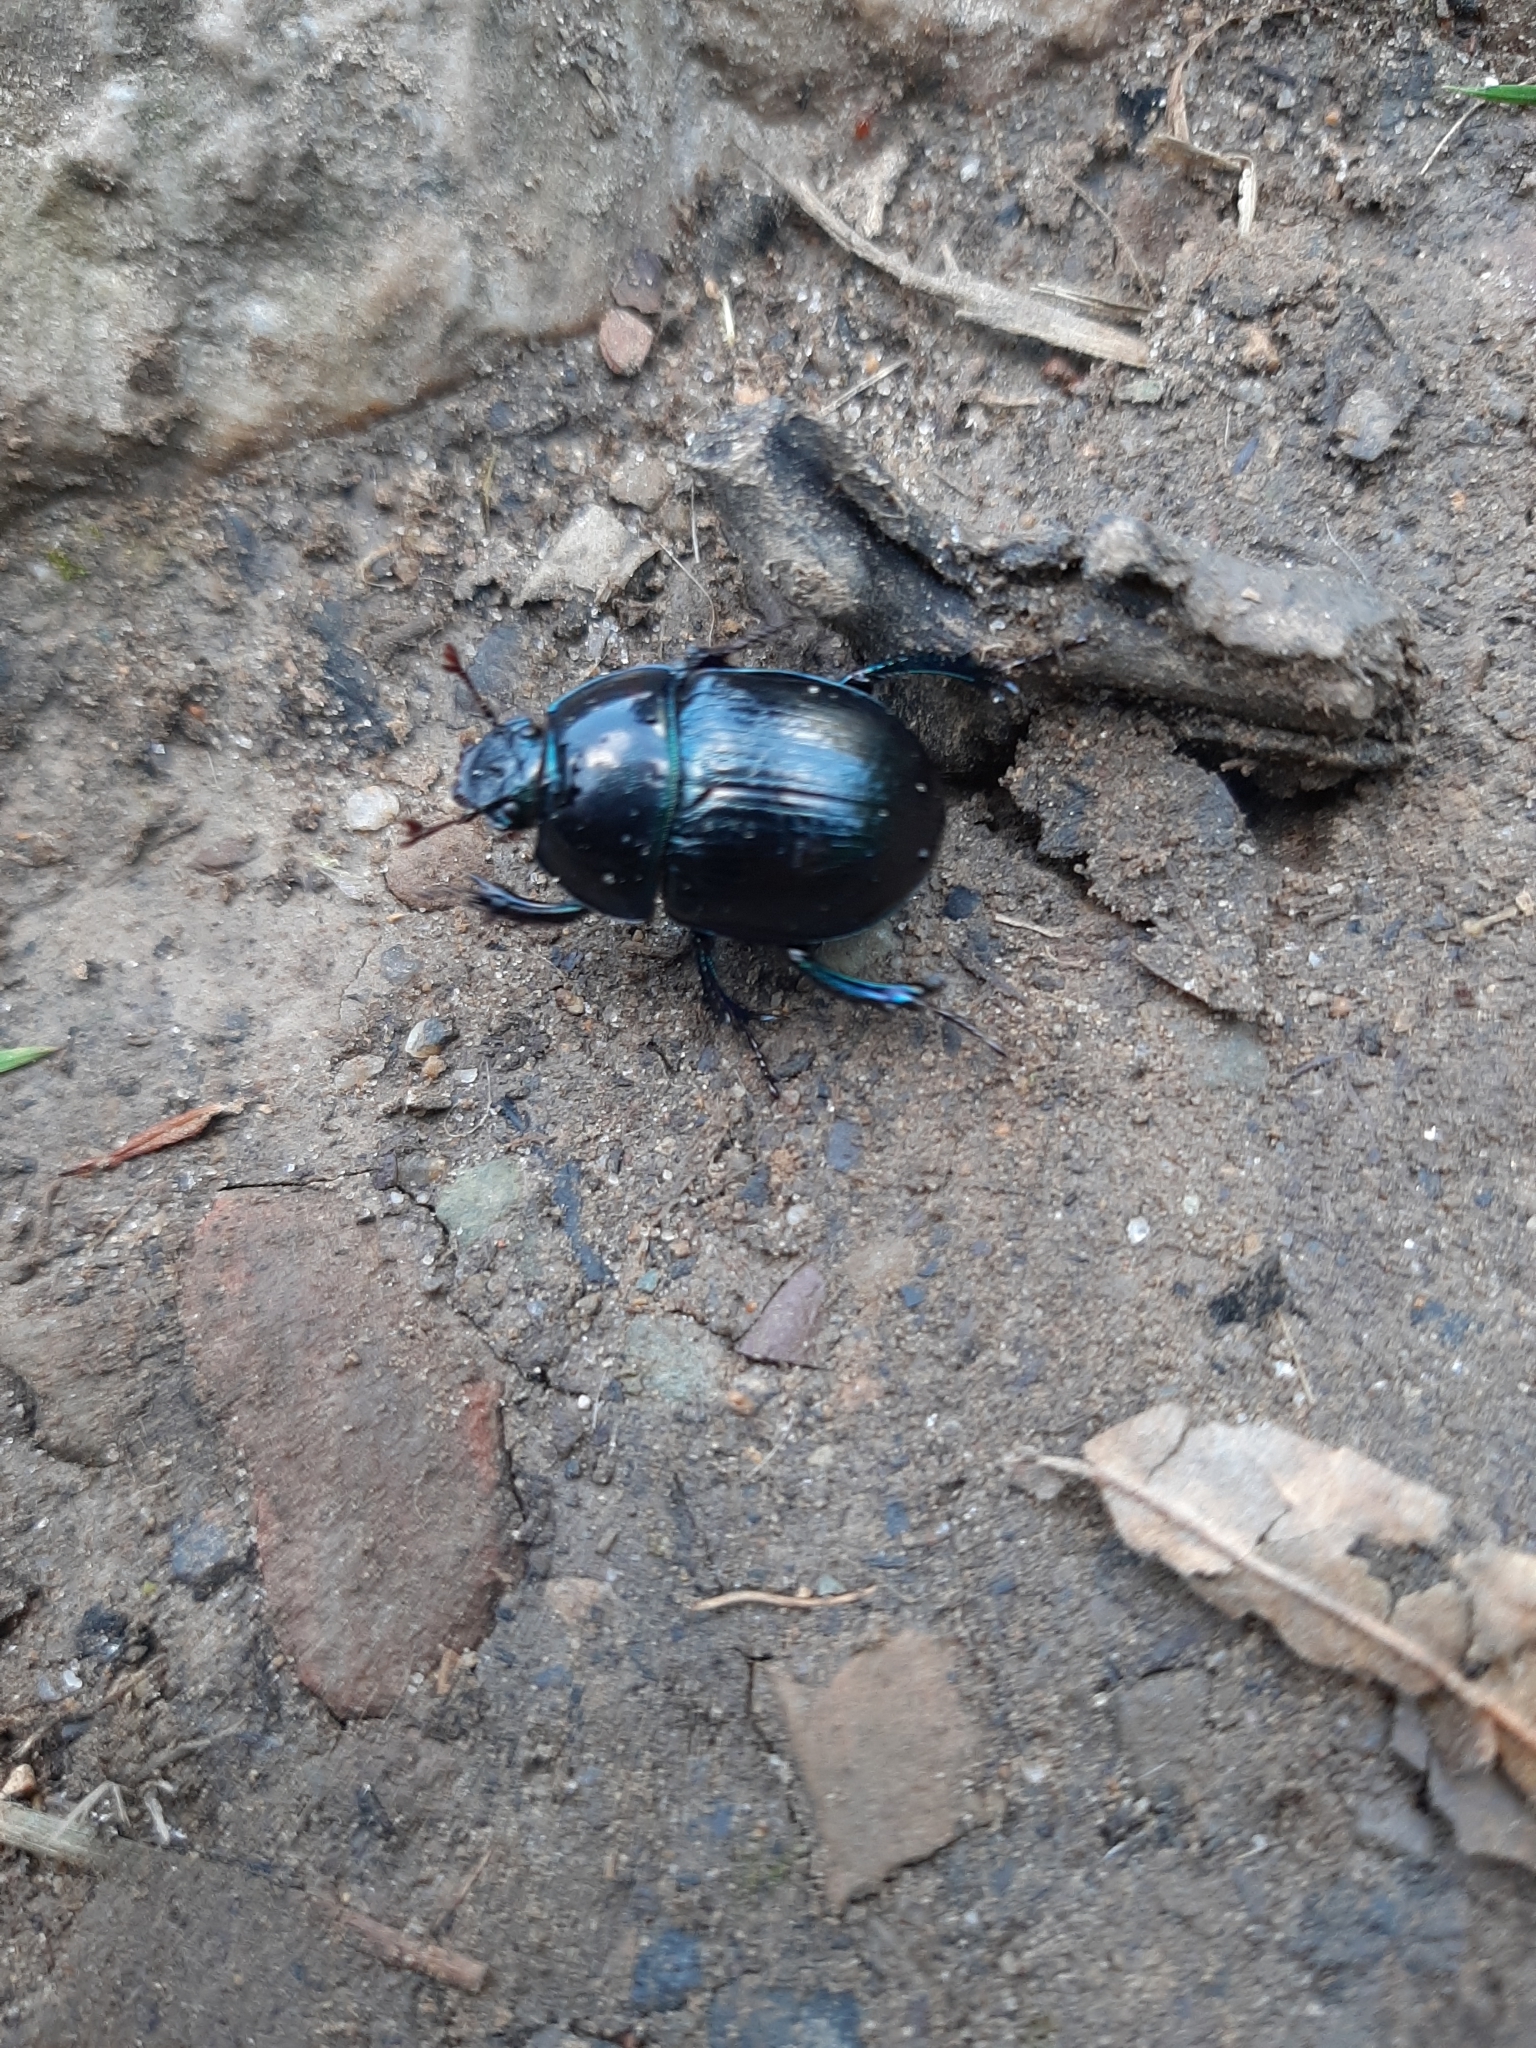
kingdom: Animalia
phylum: Arthropoda
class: Insecta
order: Coleoptera
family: Geotrupidae
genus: Anoplotrupes
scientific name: Anoplotrupes stercorosus
